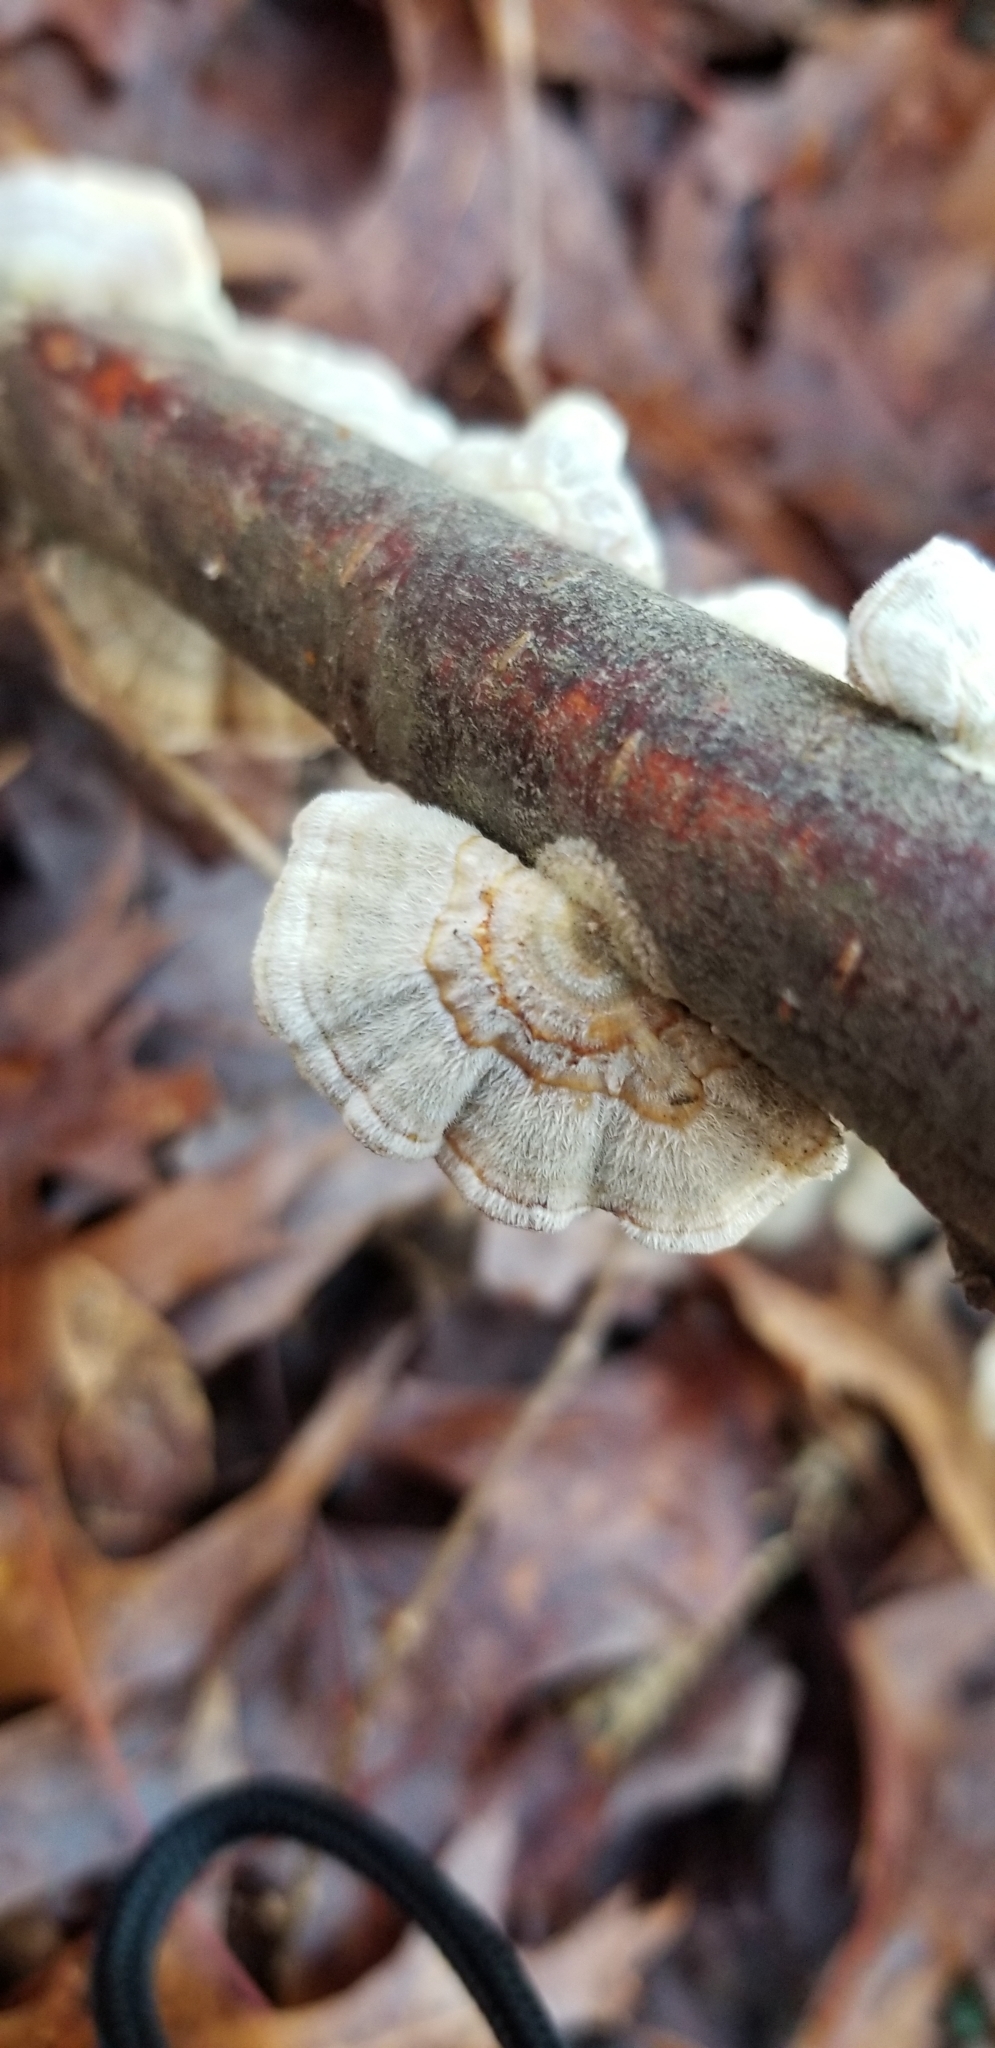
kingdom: Fungi
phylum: Basidiomycota
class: Agaricomycetes
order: Polyporales
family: Polyporaceae
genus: Trametes
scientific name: Trametes versicolor
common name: Turkeytail
